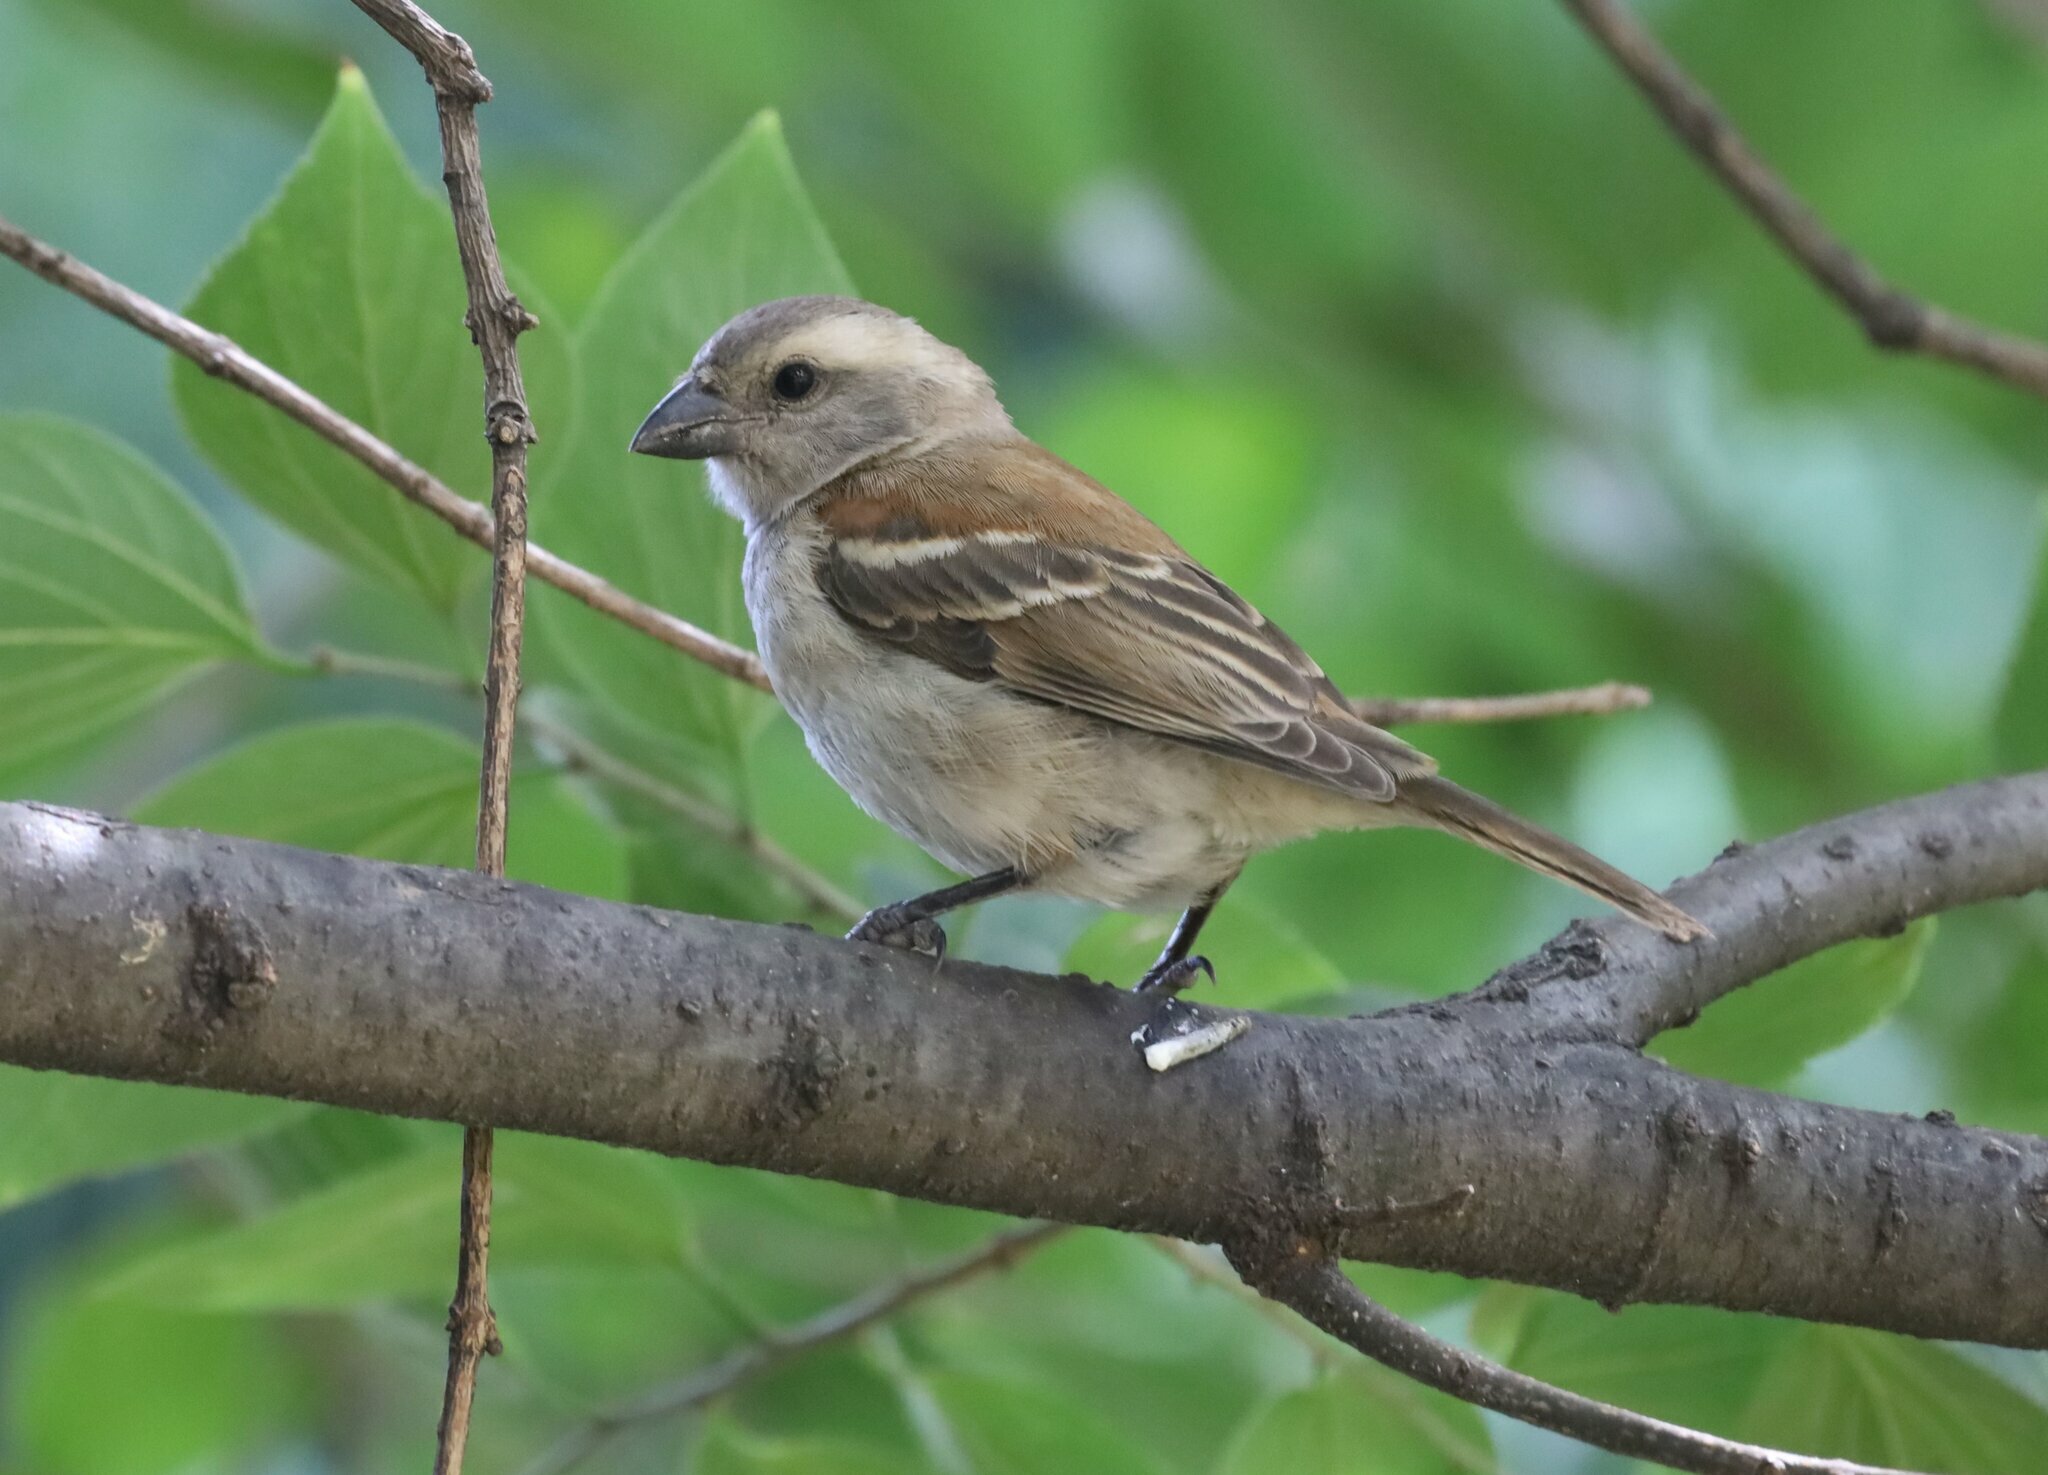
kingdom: Animalia
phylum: Chordata
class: Aves
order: Passeriformes
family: Passeridae
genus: Passer
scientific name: Passer melanurus
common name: Cape sparrow
